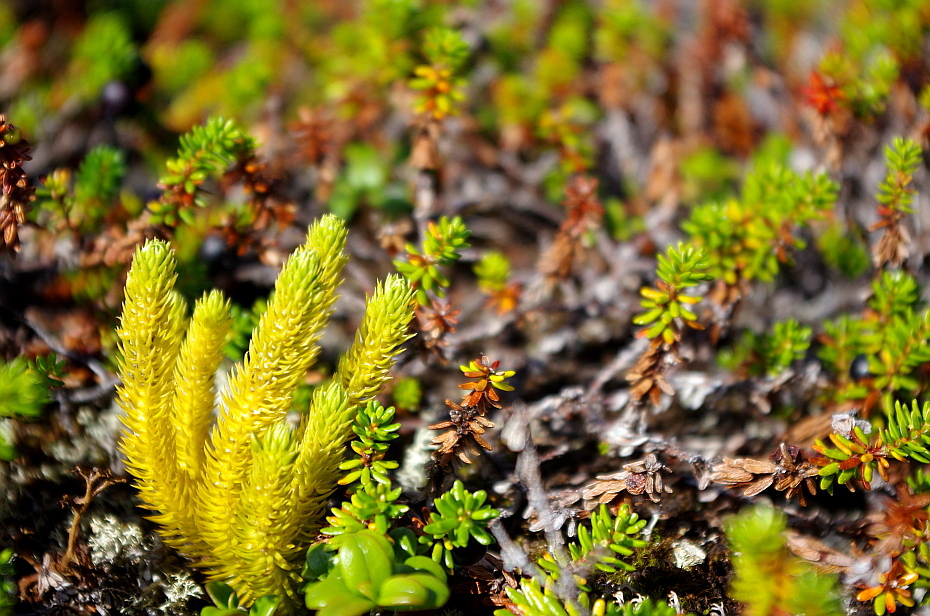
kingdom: Plantae
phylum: Tracheophyta
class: Lycopodiopsida
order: Lycopodiales
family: Lycopodiaceae
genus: Huperzia
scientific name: Huperzia selago
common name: Northern firmoss
